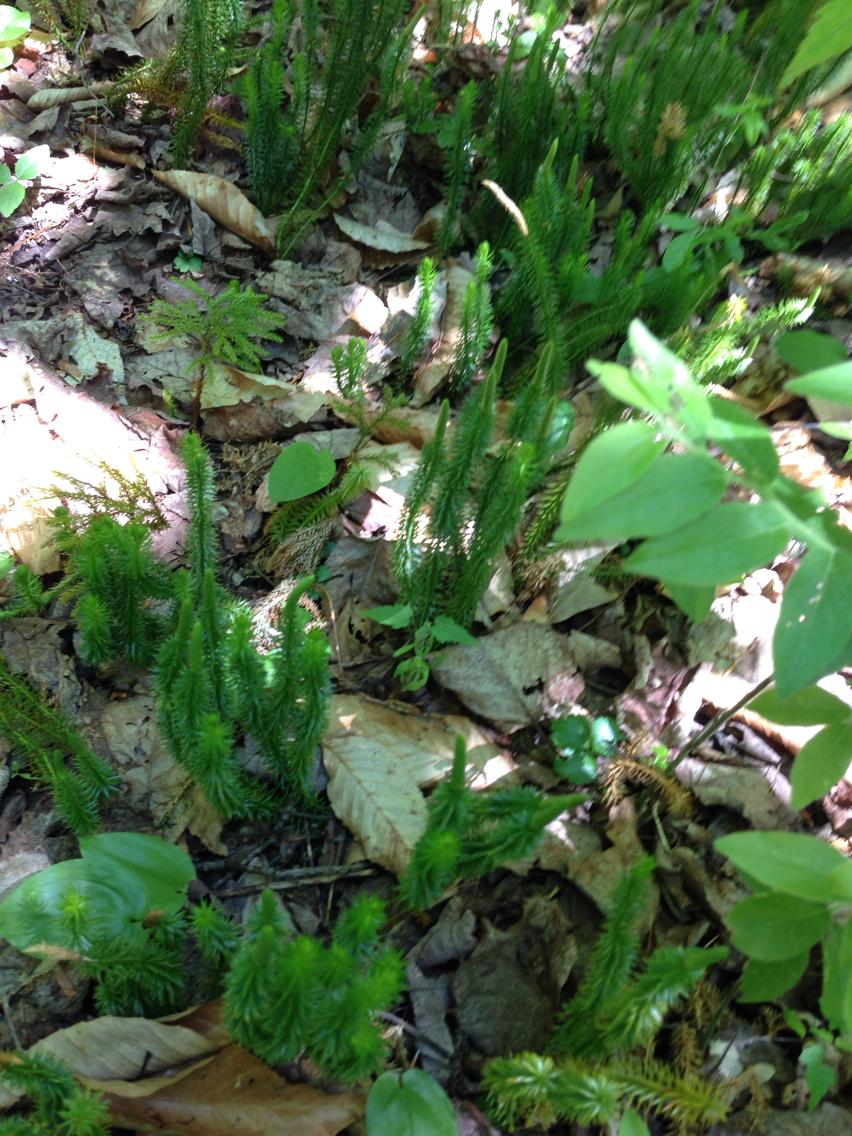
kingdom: Plantae
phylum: Tracheophyta
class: Lycopodiopsida
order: Lycopodiales
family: Lycopodiaceae
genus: Spinulum
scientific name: Spinulum annotinum
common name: Interrupted club-moss
